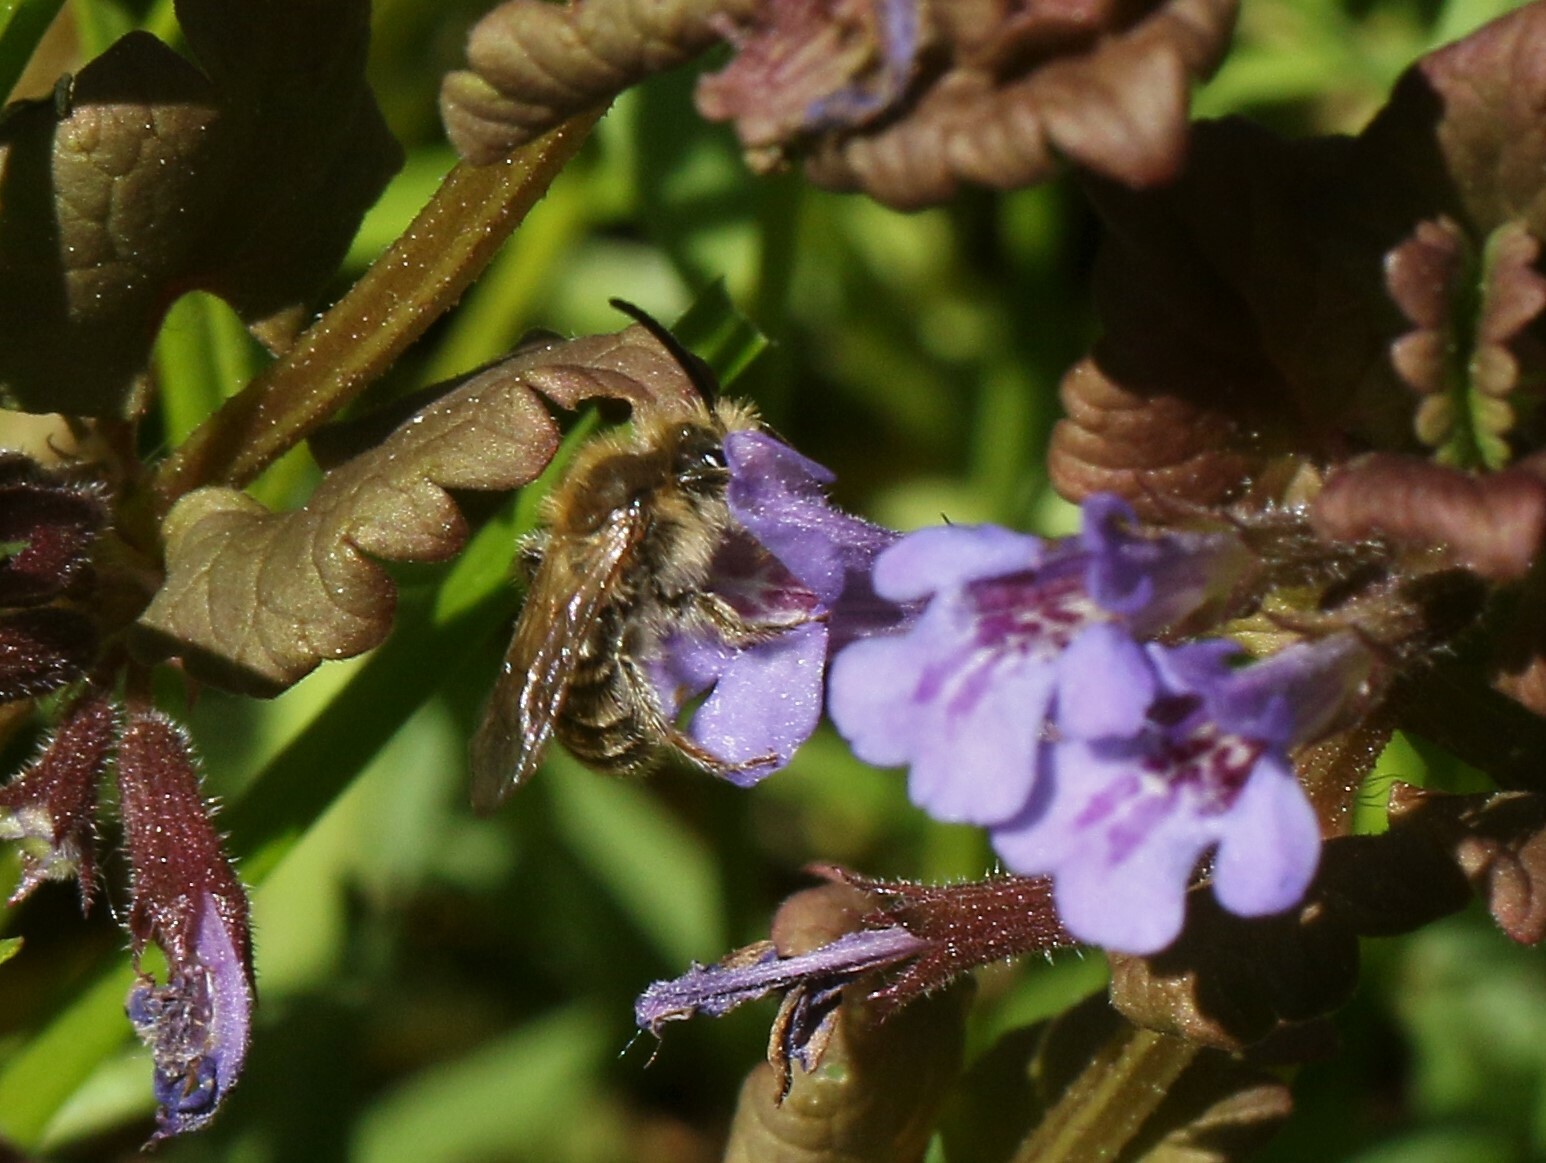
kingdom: Animalia
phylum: Arthropoda
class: Insecta
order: Hymenoptera
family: Andrenidae
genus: Andrena
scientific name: Andrena
